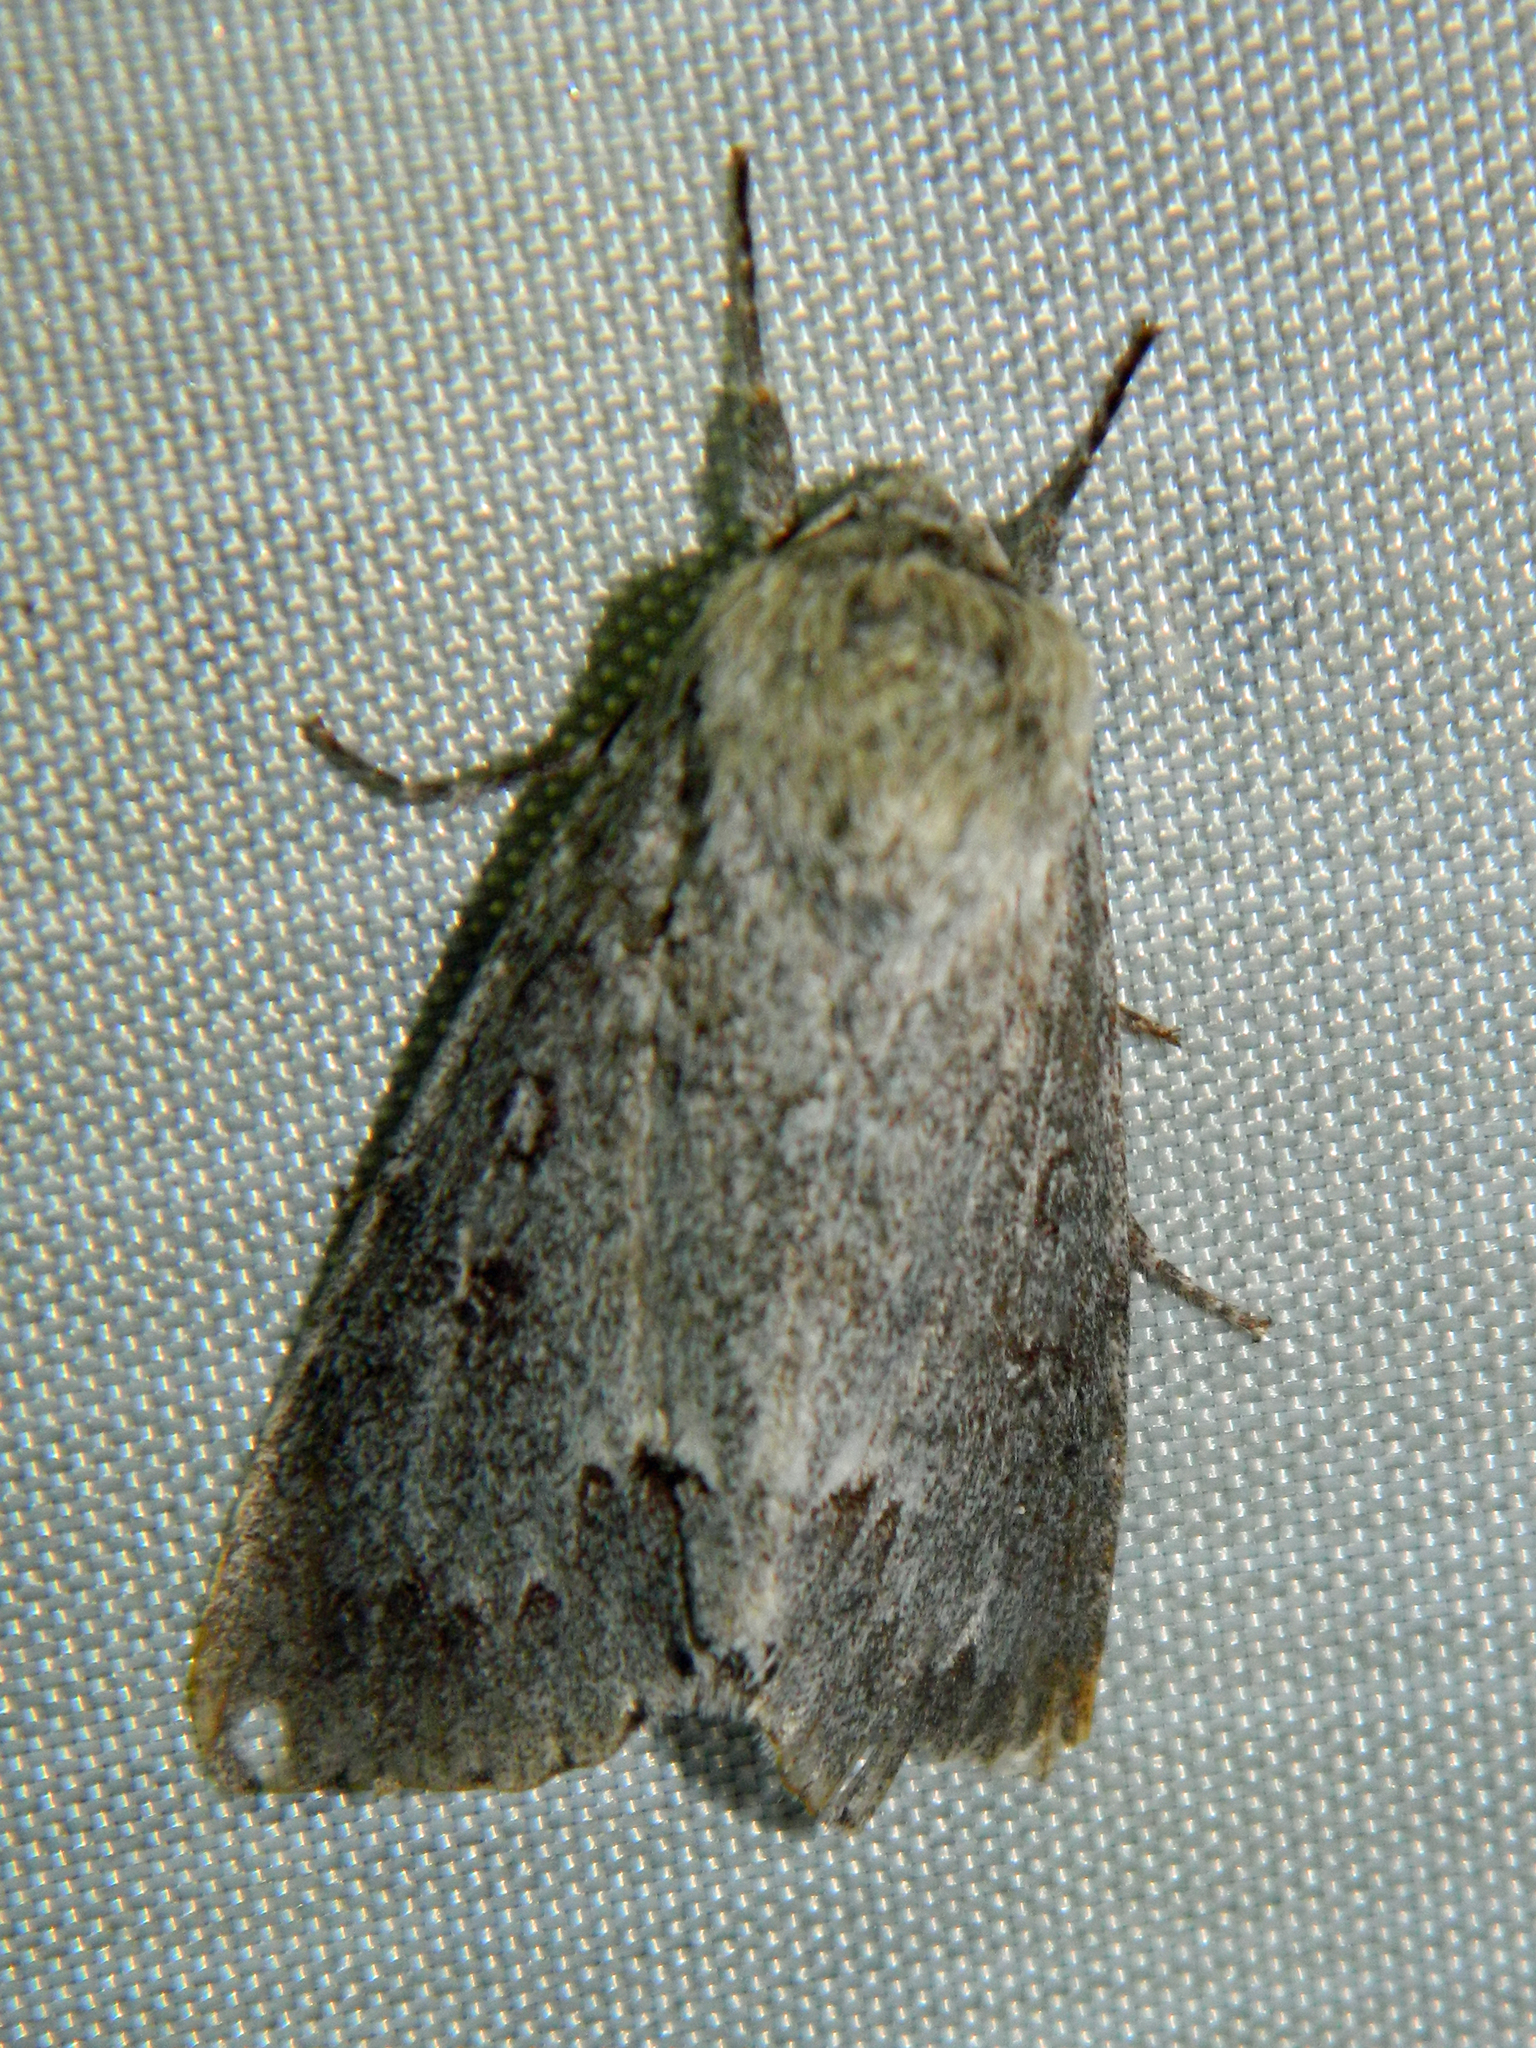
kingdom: Animalia
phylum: Arthropoda
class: Insecta
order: Lepidoptera
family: Noctuidae
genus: Acronicta
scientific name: Acronicta insita
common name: Large gray dagger
